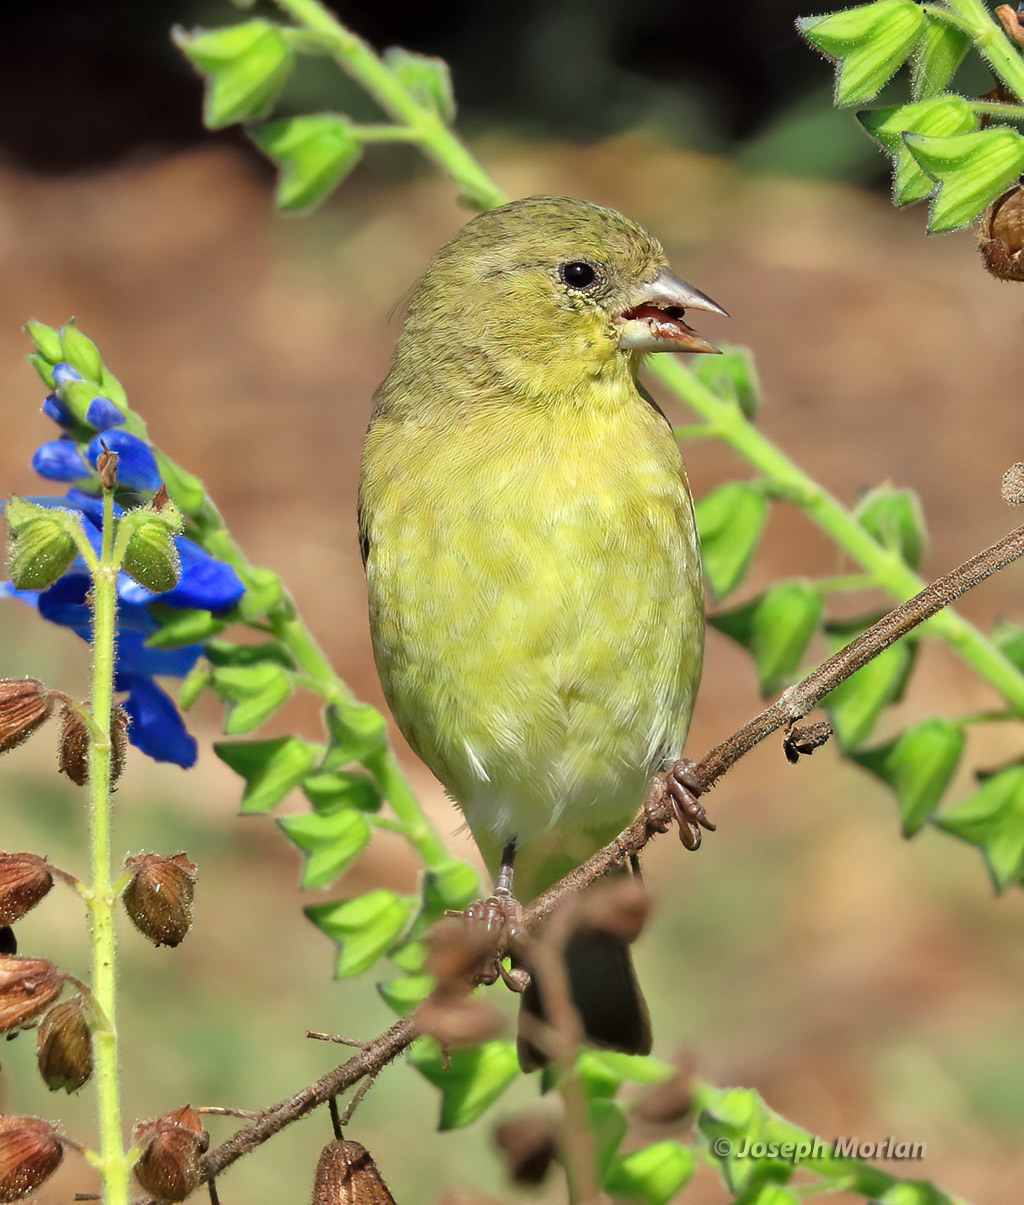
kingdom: Animalia
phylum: Chordata
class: Aves
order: Passeriformes
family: Fringillidae
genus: Spinus
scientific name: Spinus psaltria
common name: Lesser goldfinch
